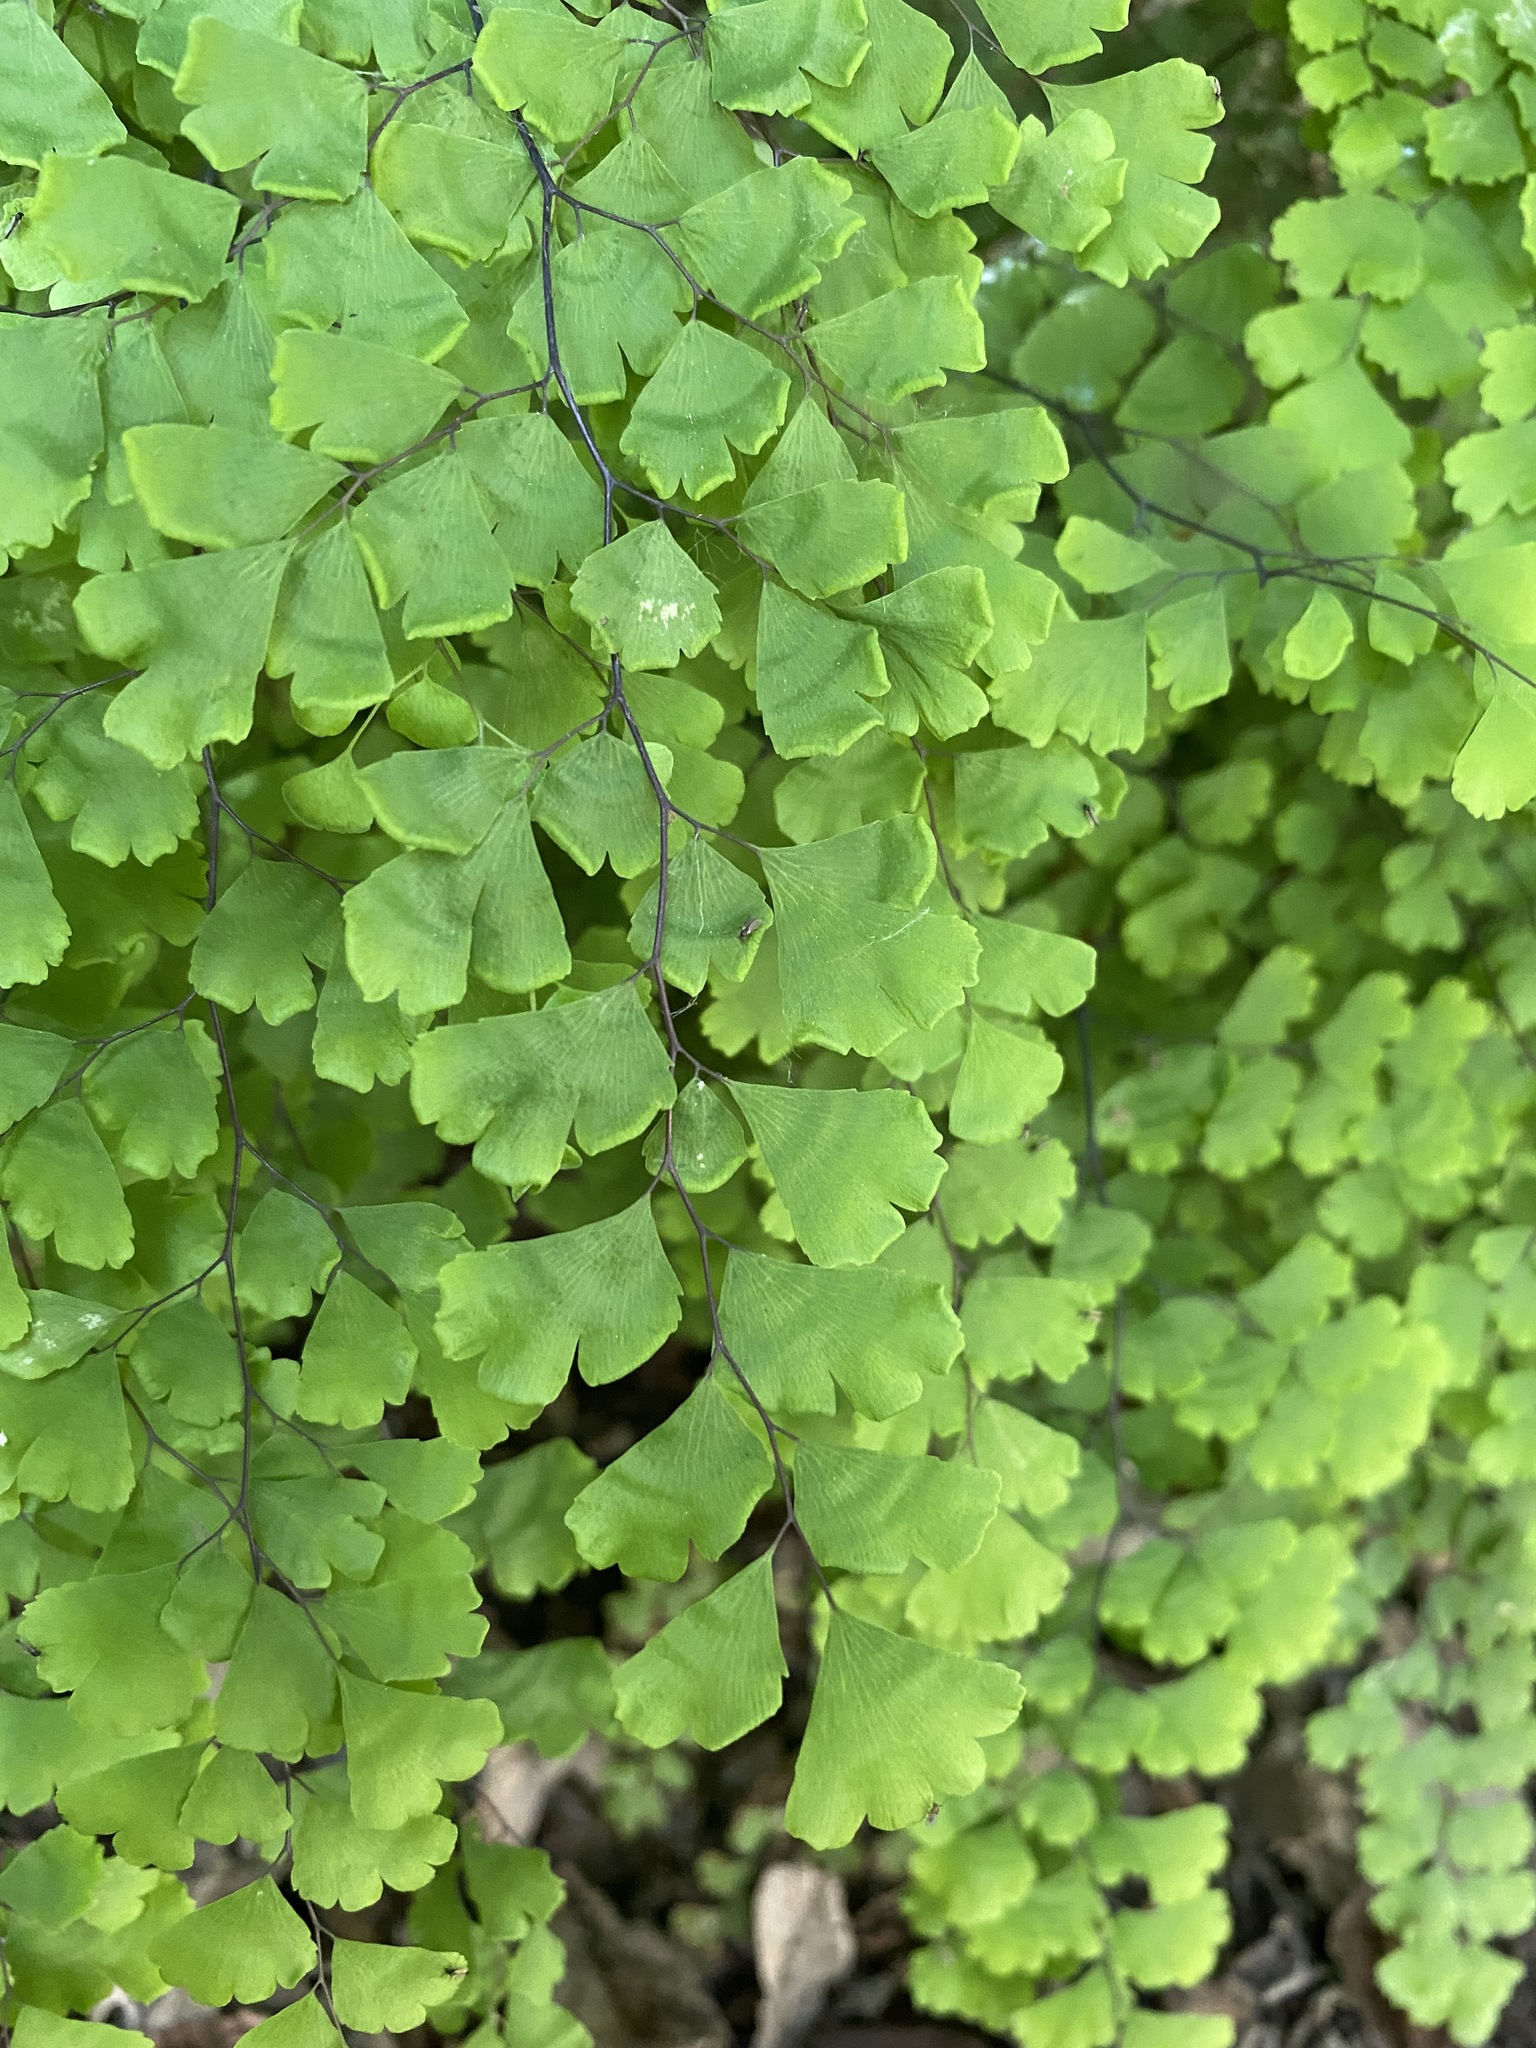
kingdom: Plantae
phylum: Tracheophyta
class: Polypodiopsida
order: Polypodiales
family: Pteridaceae
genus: Adiantum
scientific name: Adiantum capillus-veneris
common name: Maidenhair fern
